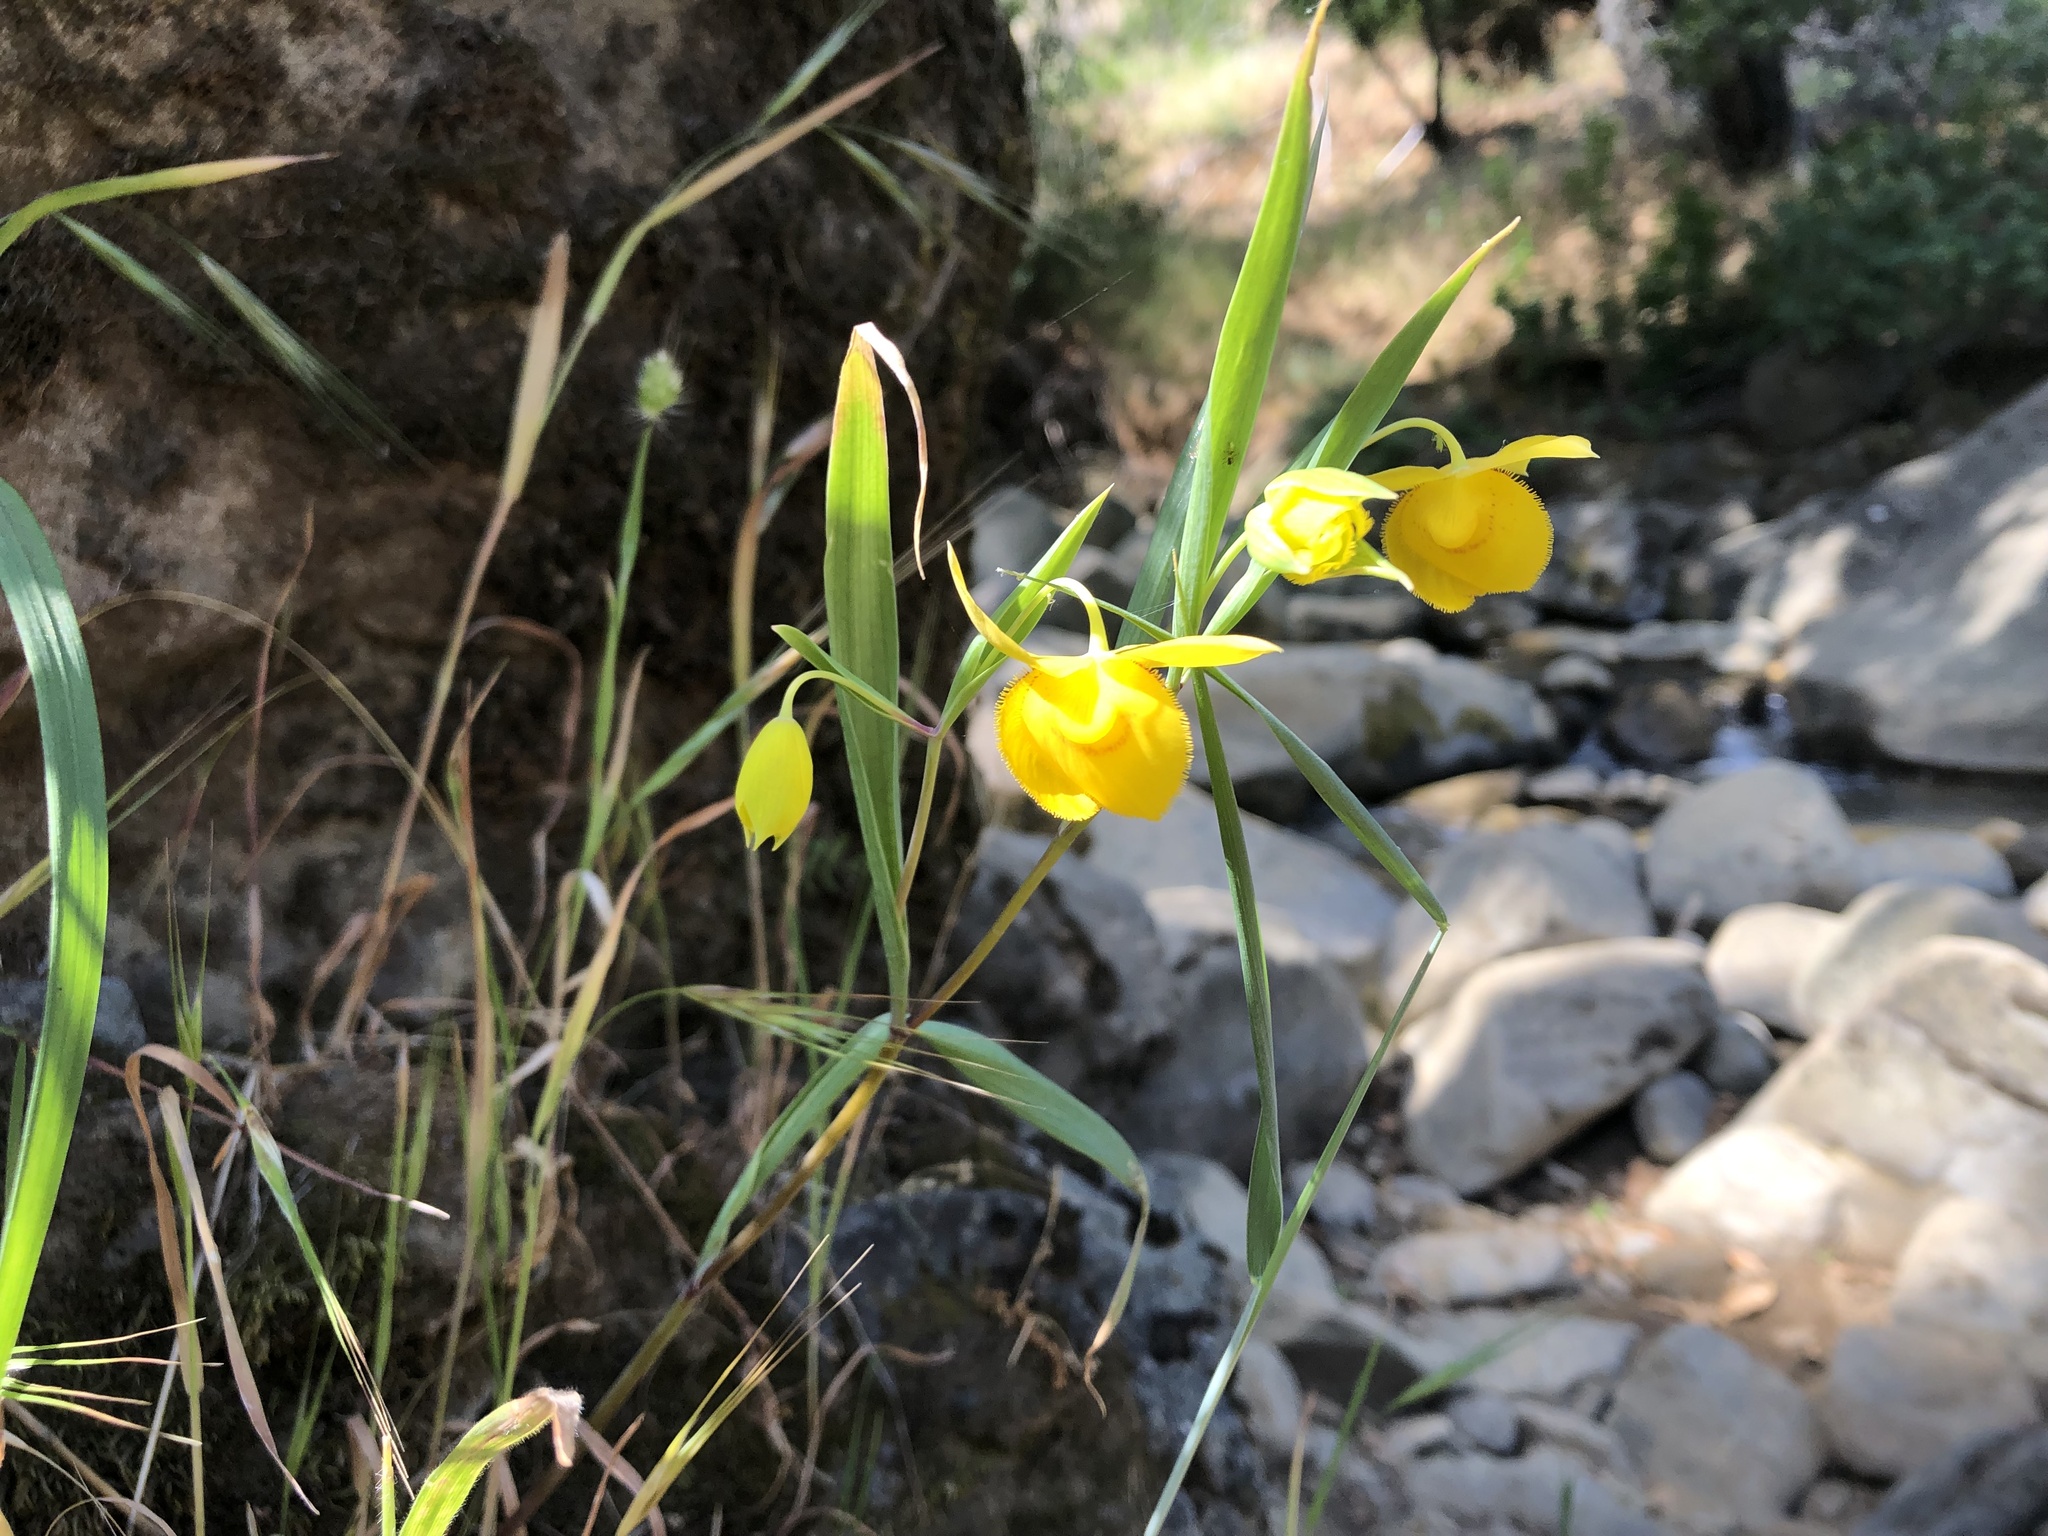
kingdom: Plantae
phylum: Tracheophyta
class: Liliopsida
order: Liliales
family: Liliaceae
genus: Calochortus
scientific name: Calochortus amabilis
